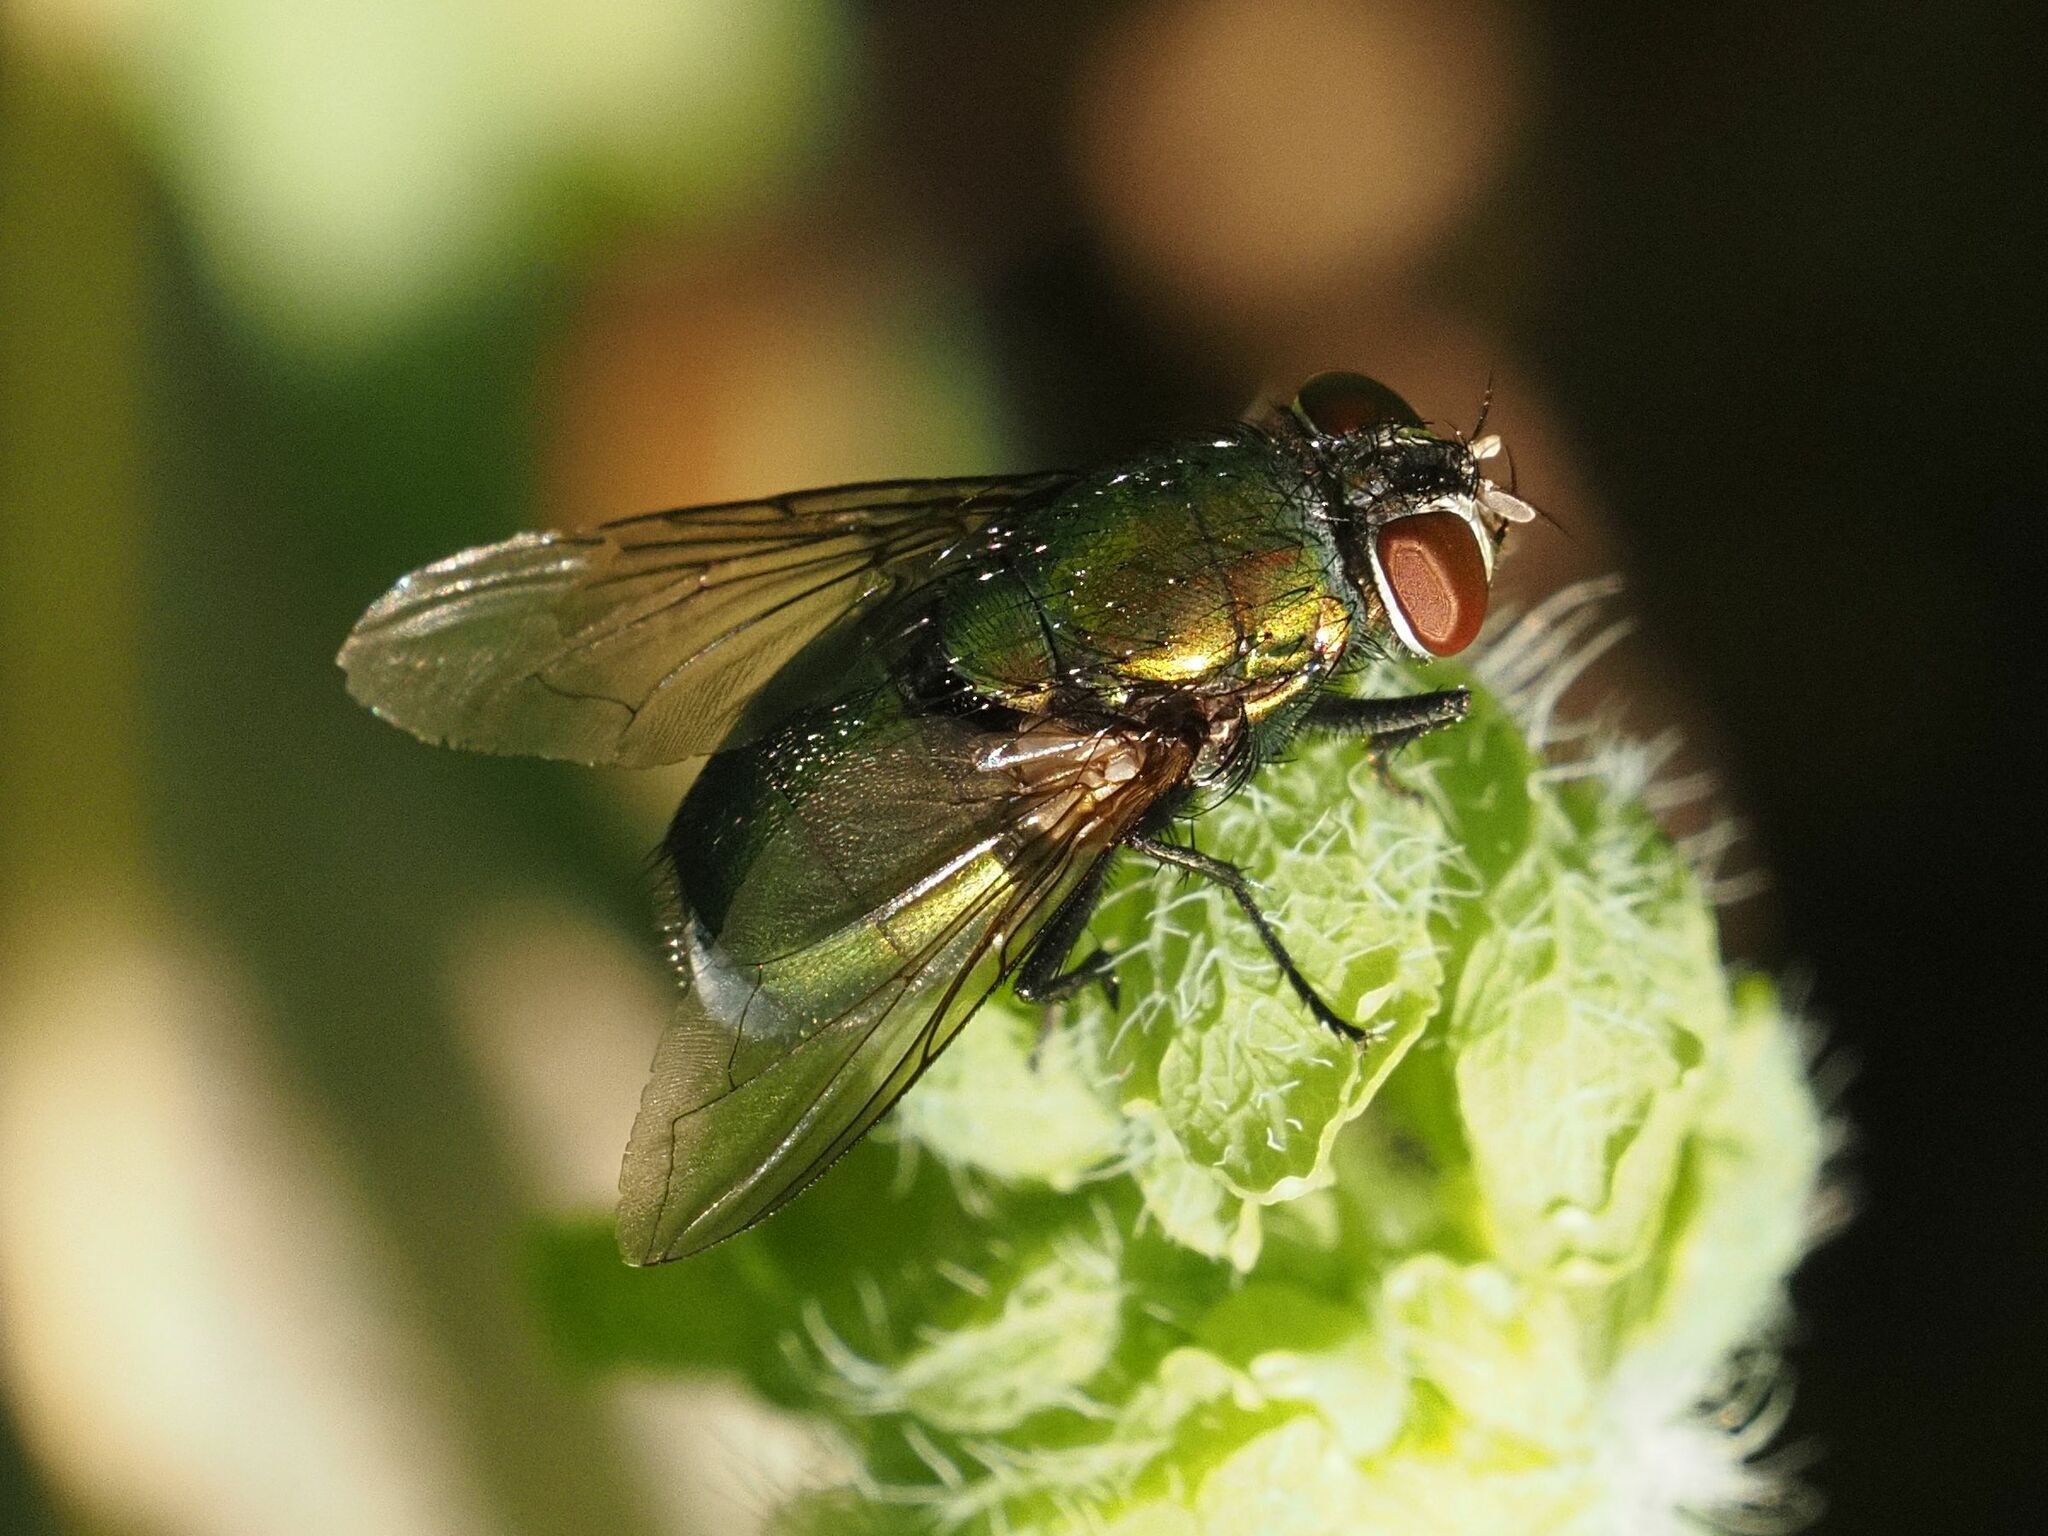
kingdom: Animalia
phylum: Arthropoda
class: Insecta
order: Diptera
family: Calliphoridae
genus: Lucilia
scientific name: Lucilia
